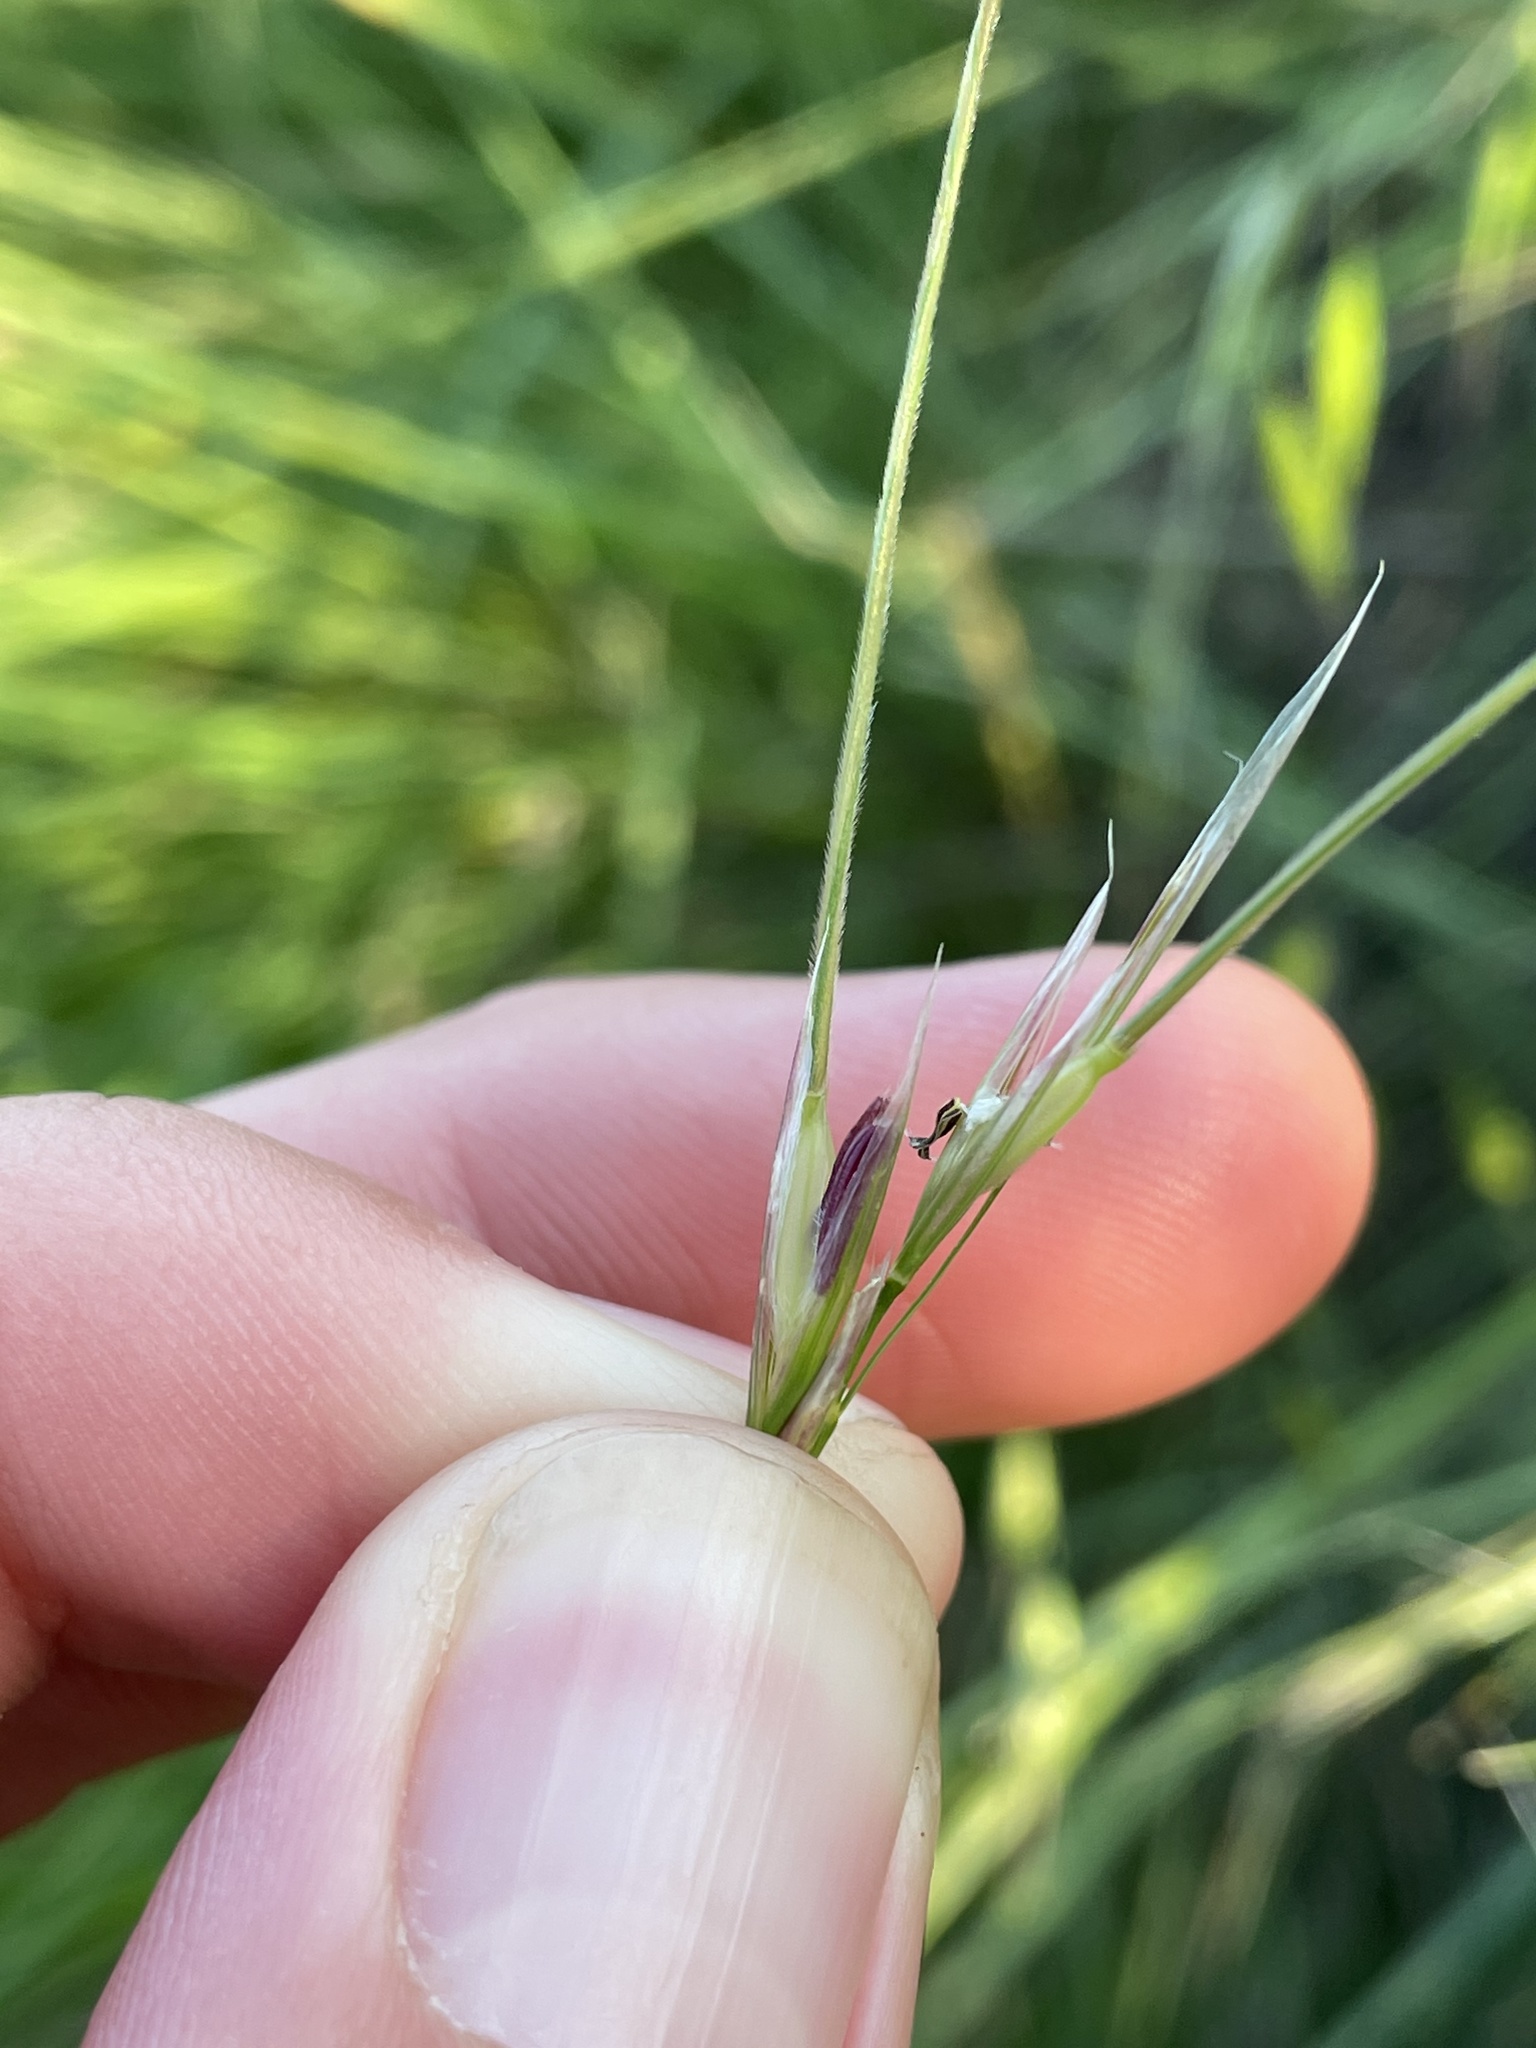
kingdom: Plantae
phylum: Tracheophyta
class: Liliopsida
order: Poales
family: Poaceae
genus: Nassella
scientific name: Nassella leucotricha
